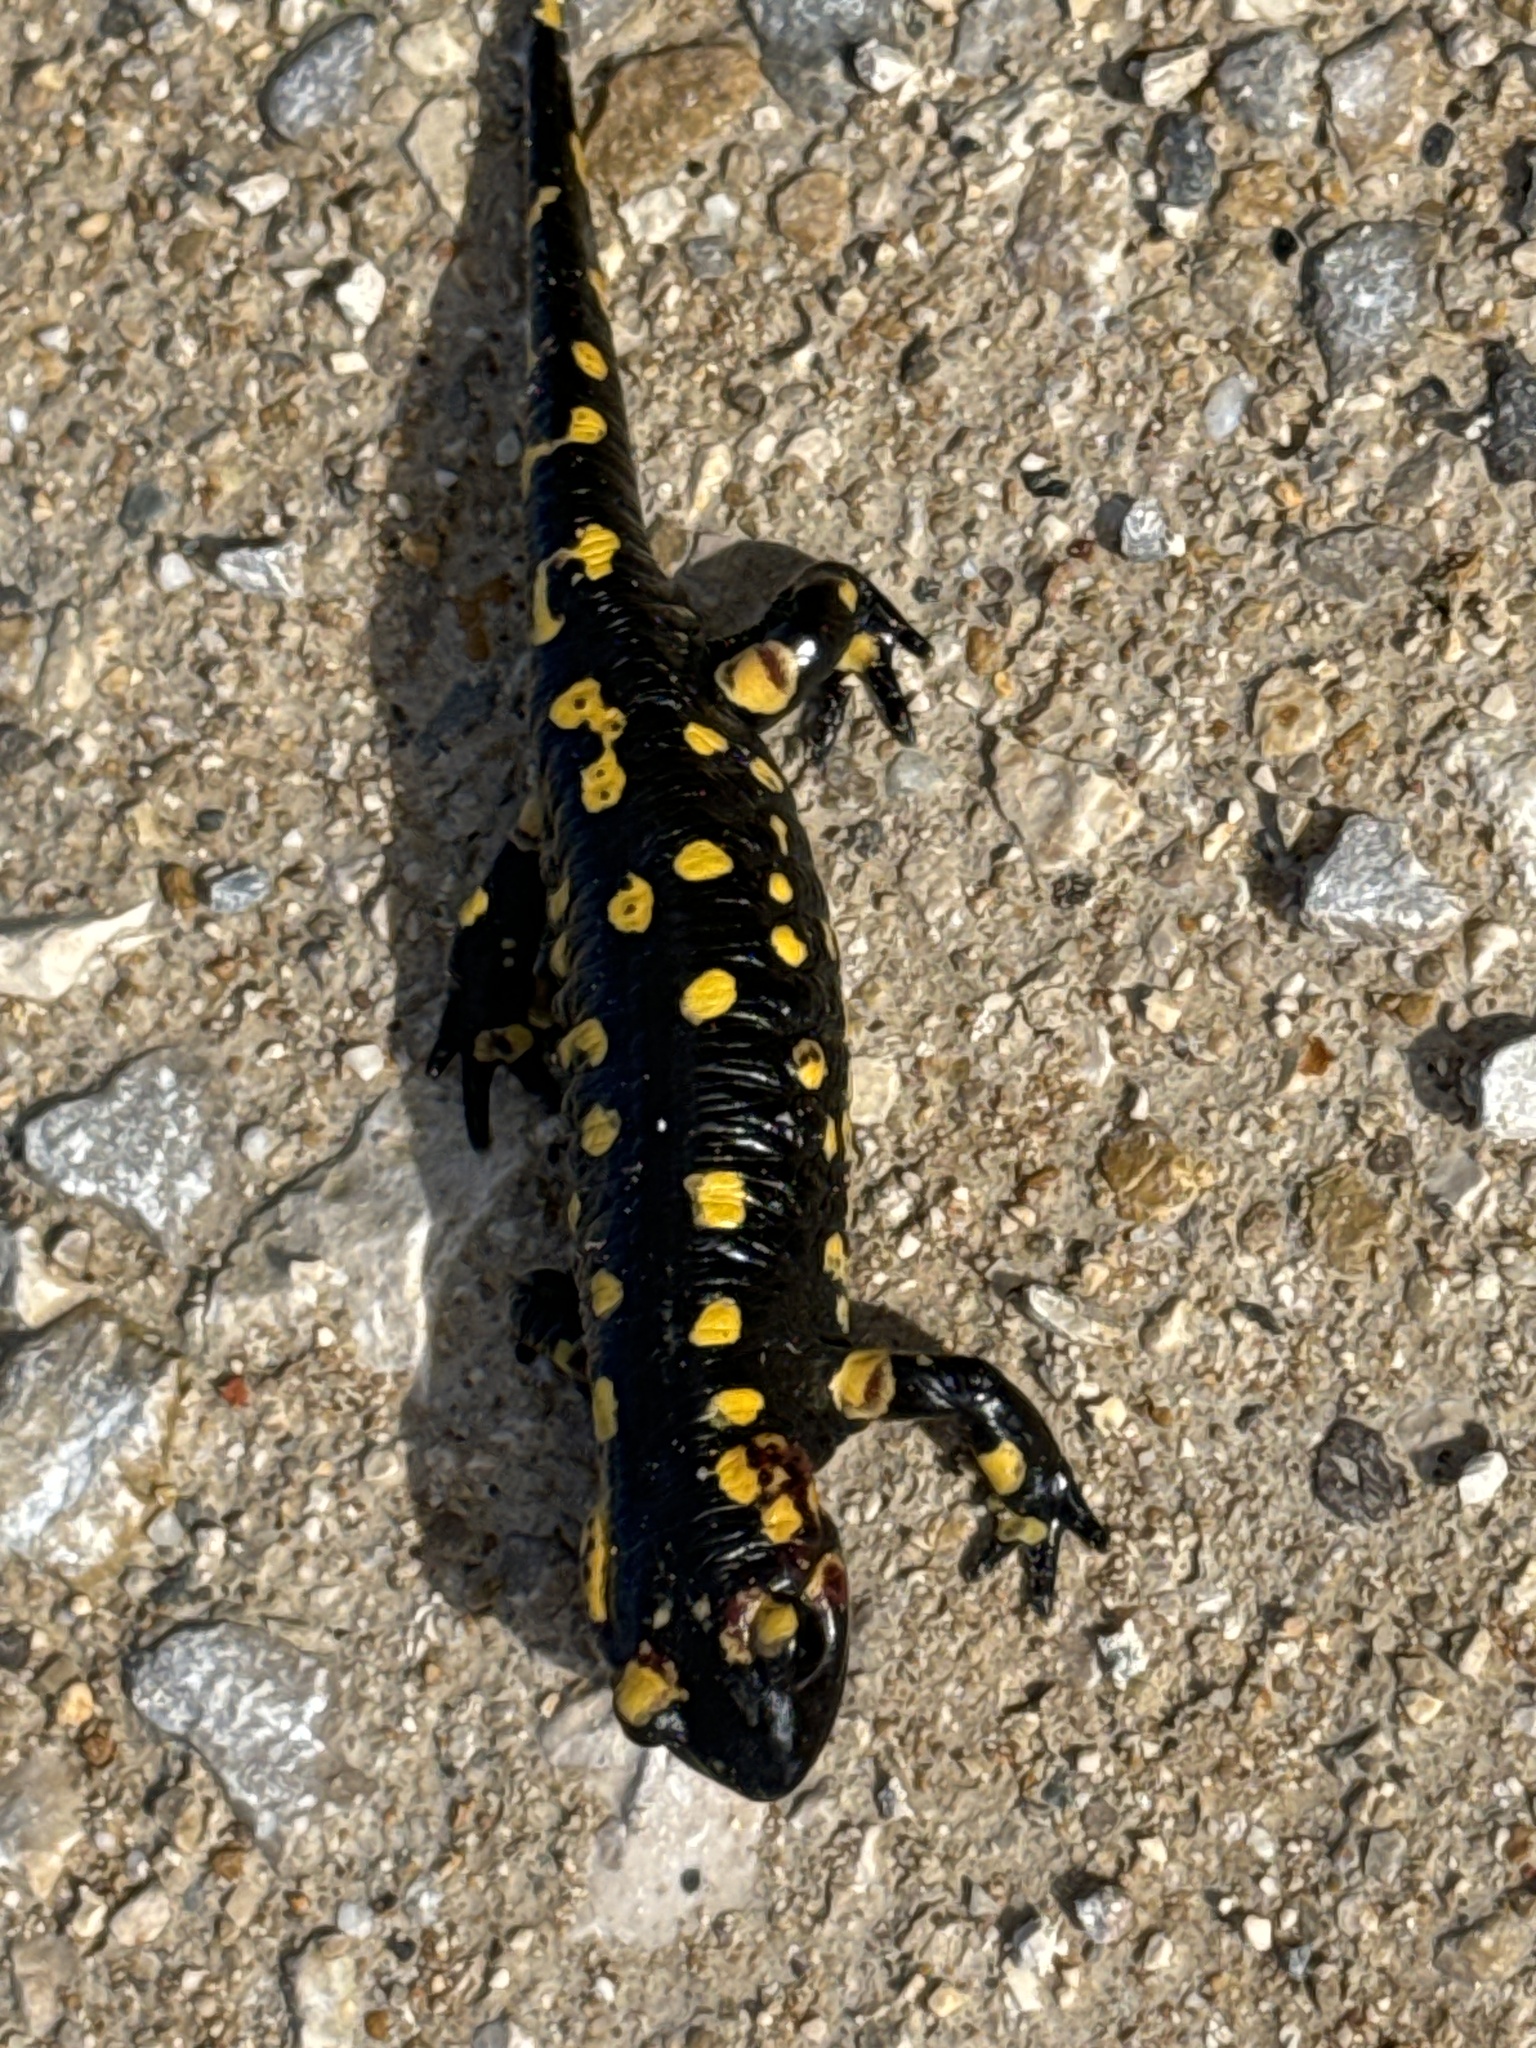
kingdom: Animalia
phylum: Chordata
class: Amphibia
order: Caudata
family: Salamandridae
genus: Salamandra
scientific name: Salamandra salamandra
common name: Fire salamander
